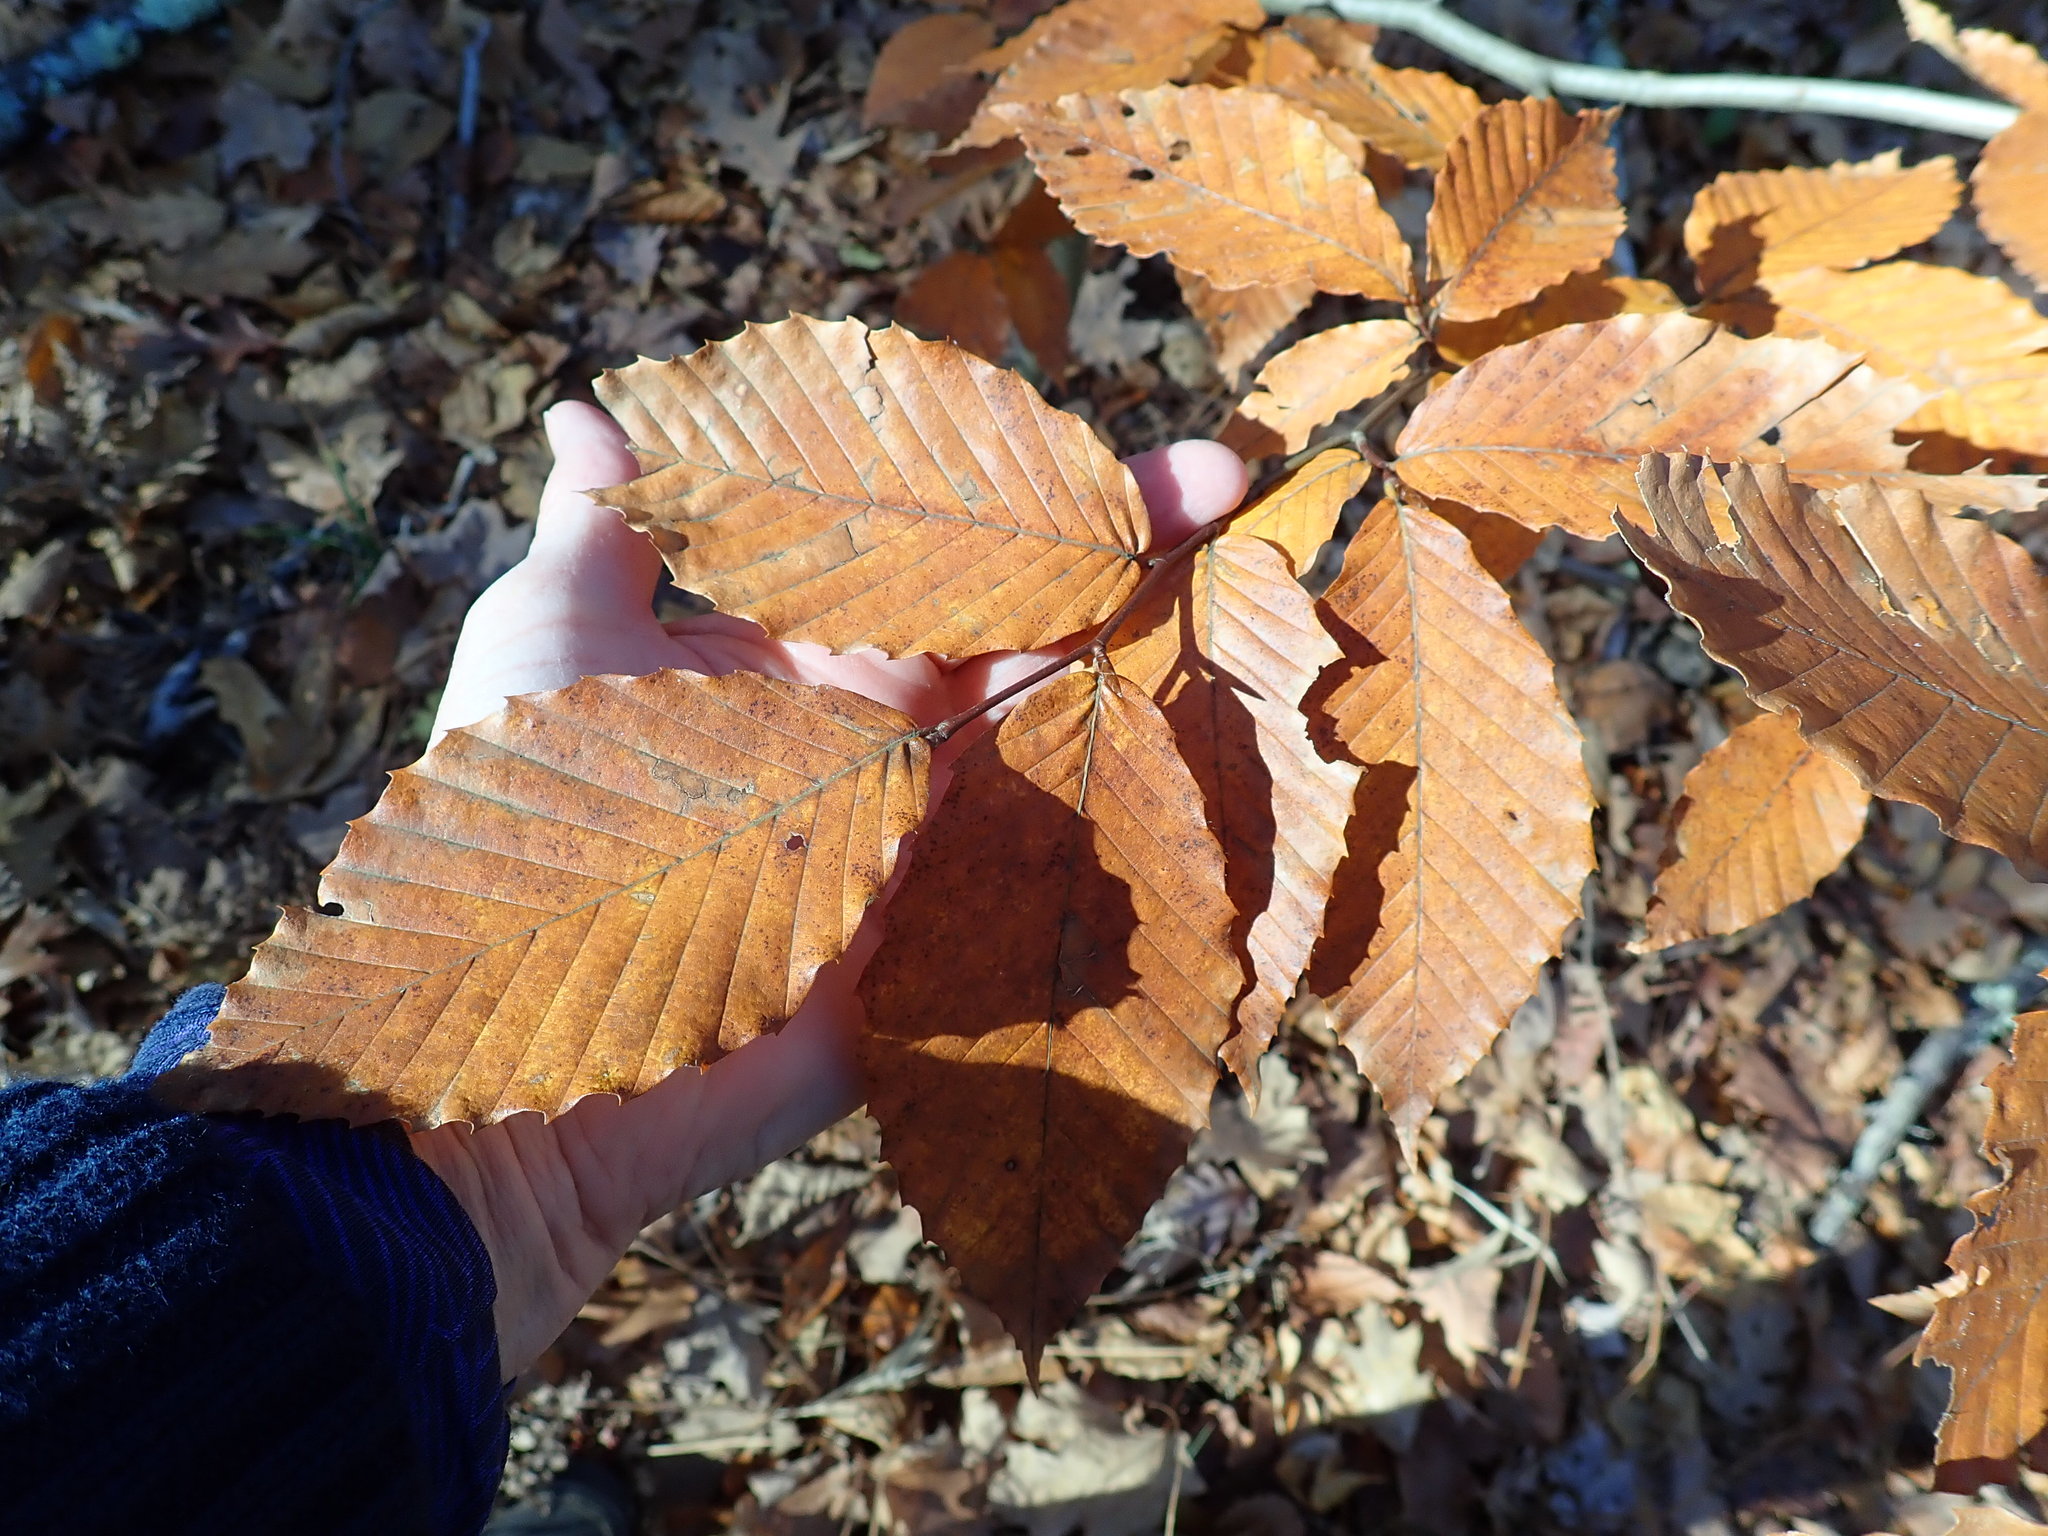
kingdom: Plantae
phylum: Tracheophyta
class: Magnoliopsida
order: Fagales
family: Fagaceae
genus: Fagus
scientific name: Fagus grandifolia
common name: American beech
